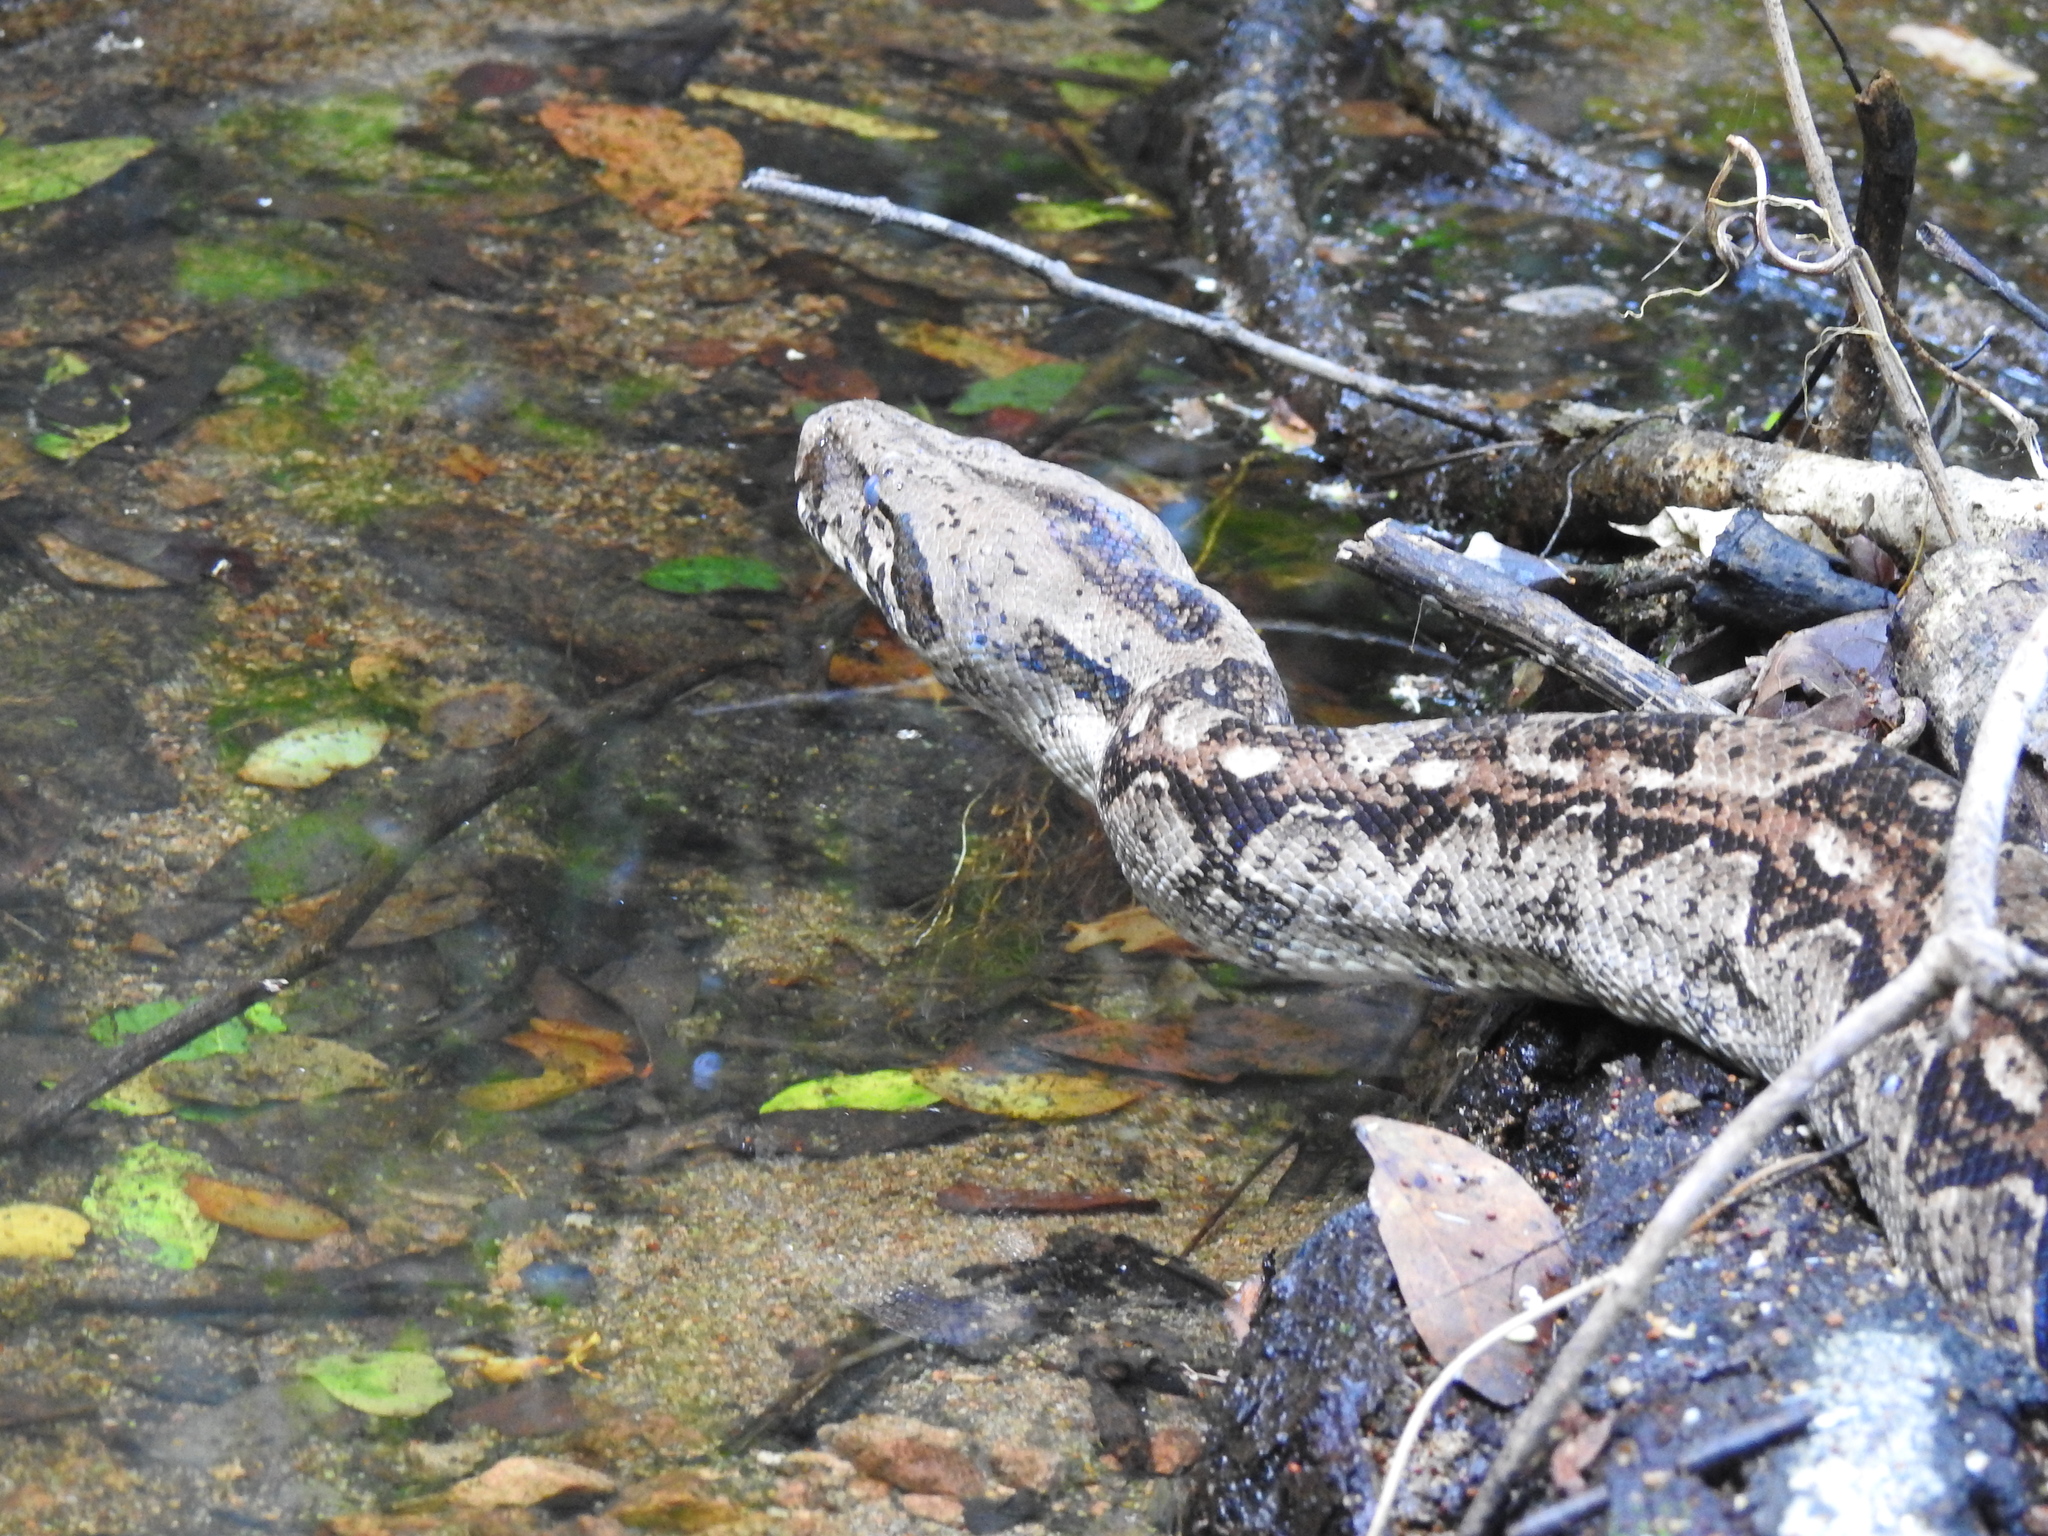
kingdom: Animalia
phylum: Chordata
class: Squamata
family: Boidae
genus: Boa
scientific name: Boa
